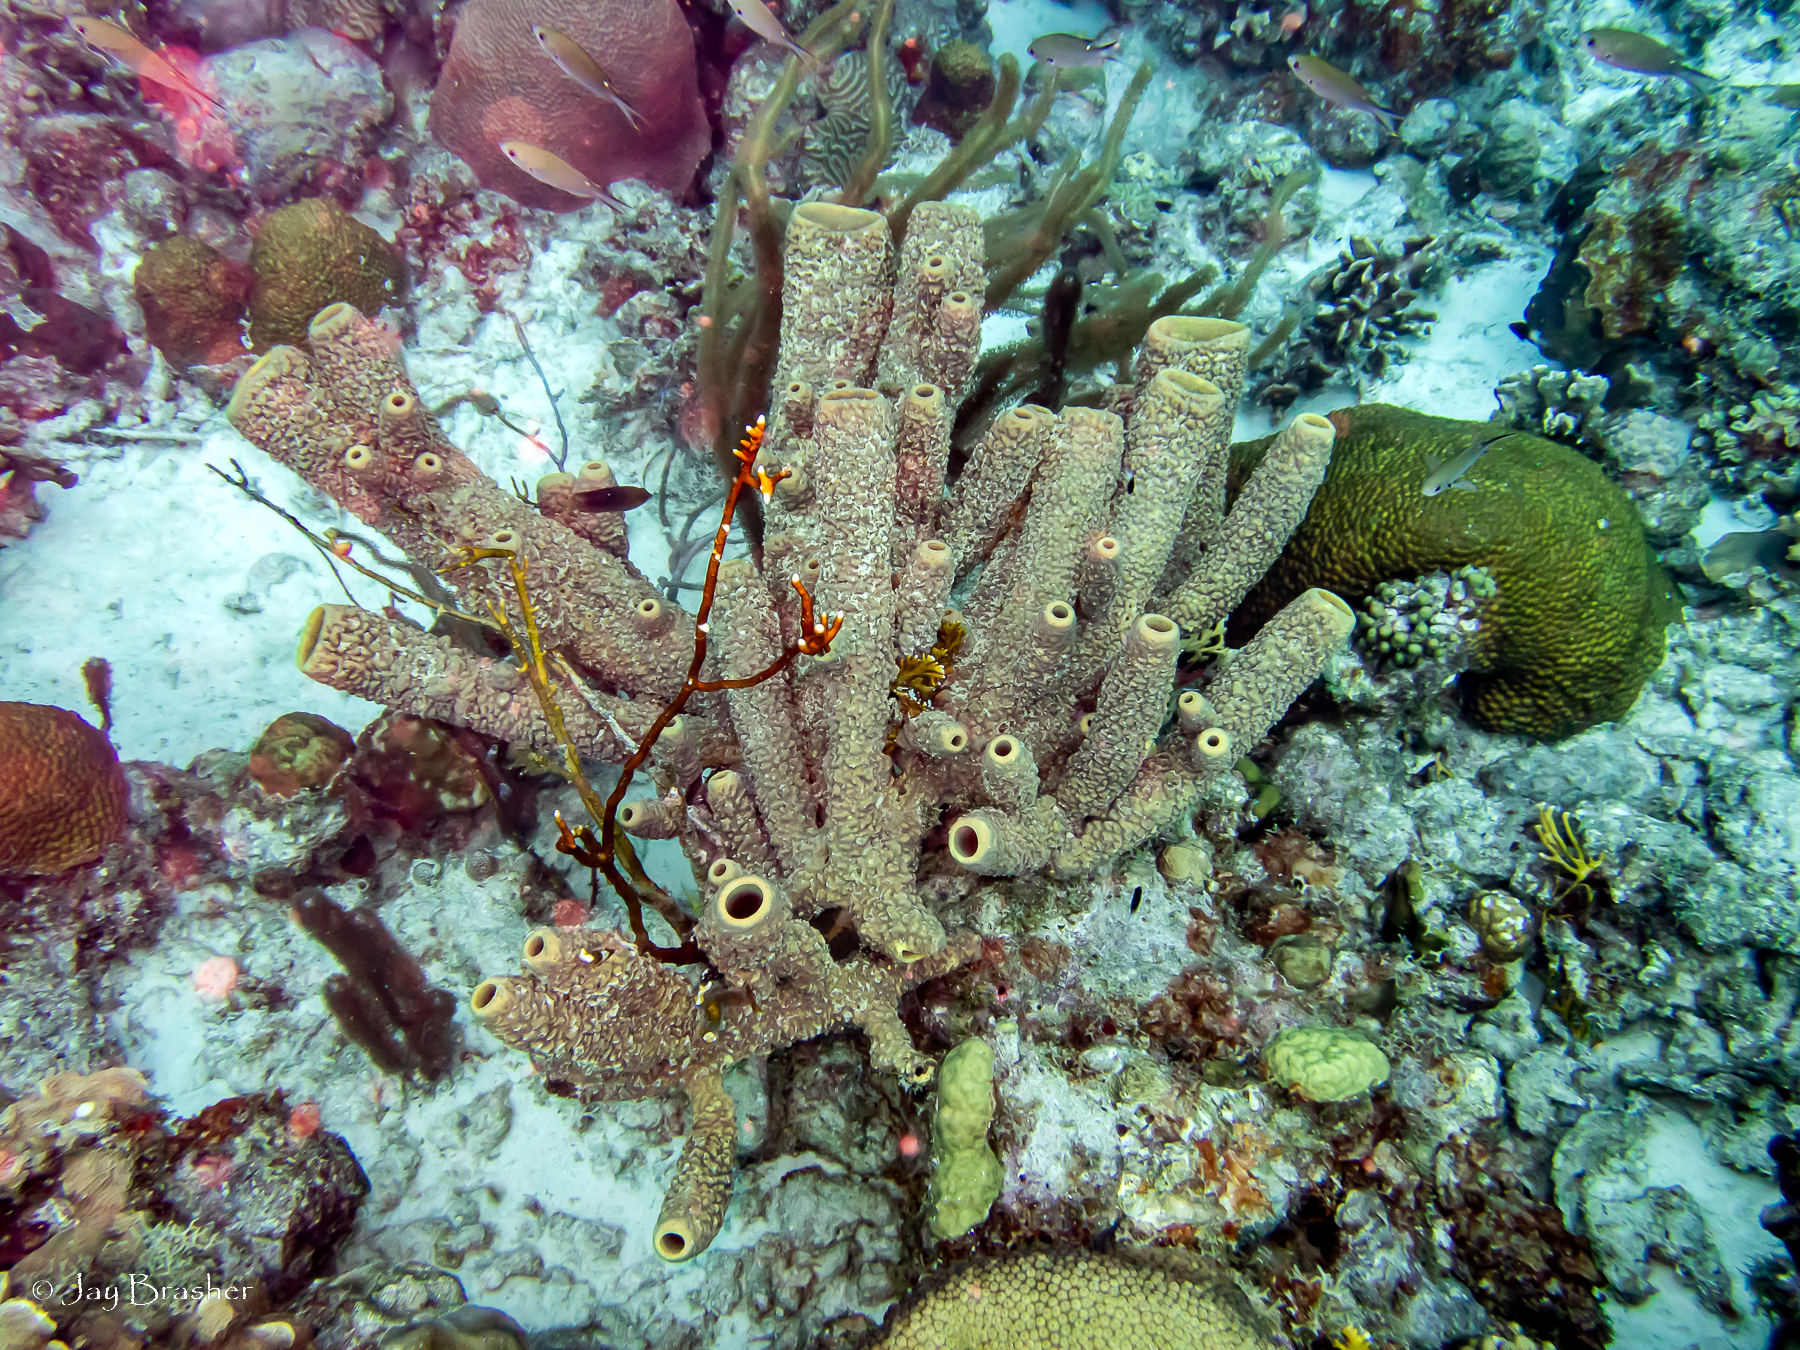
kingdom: Animalia
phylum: Porifera
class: Demospongiae
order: Verongiida
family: Aplysinidae
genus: Aplysina
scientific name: Aplysina archeri
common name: Stove-pipe sponge
